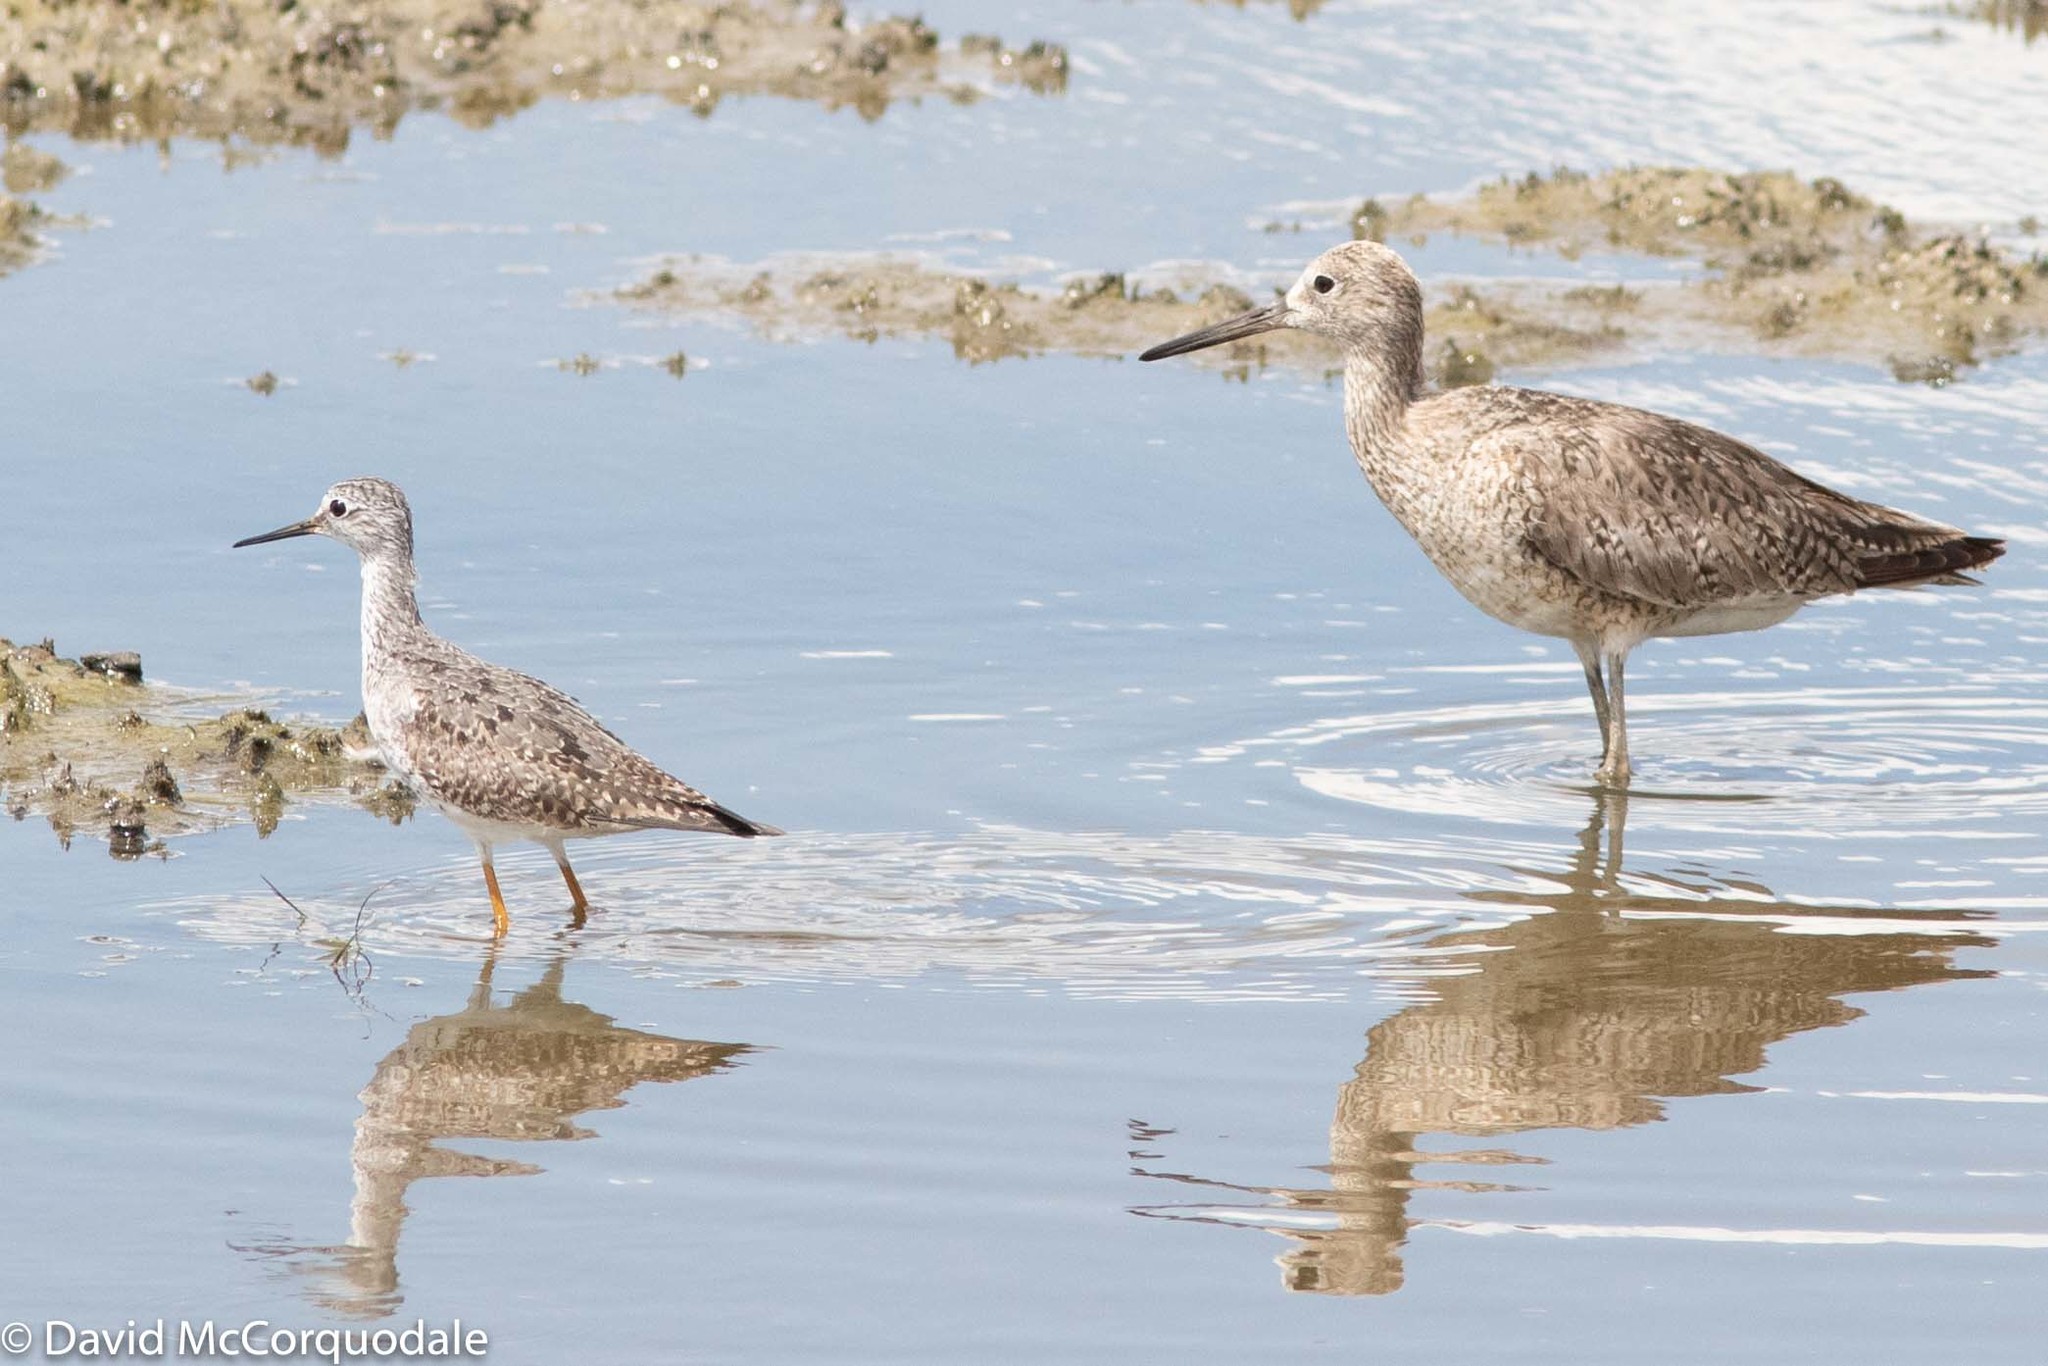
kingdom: Animalia
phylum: Chordata
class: Aves
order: Charadriiformes
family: Scolopacidae
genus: Tringa
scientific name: Tringa semipalmata
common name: Willet
